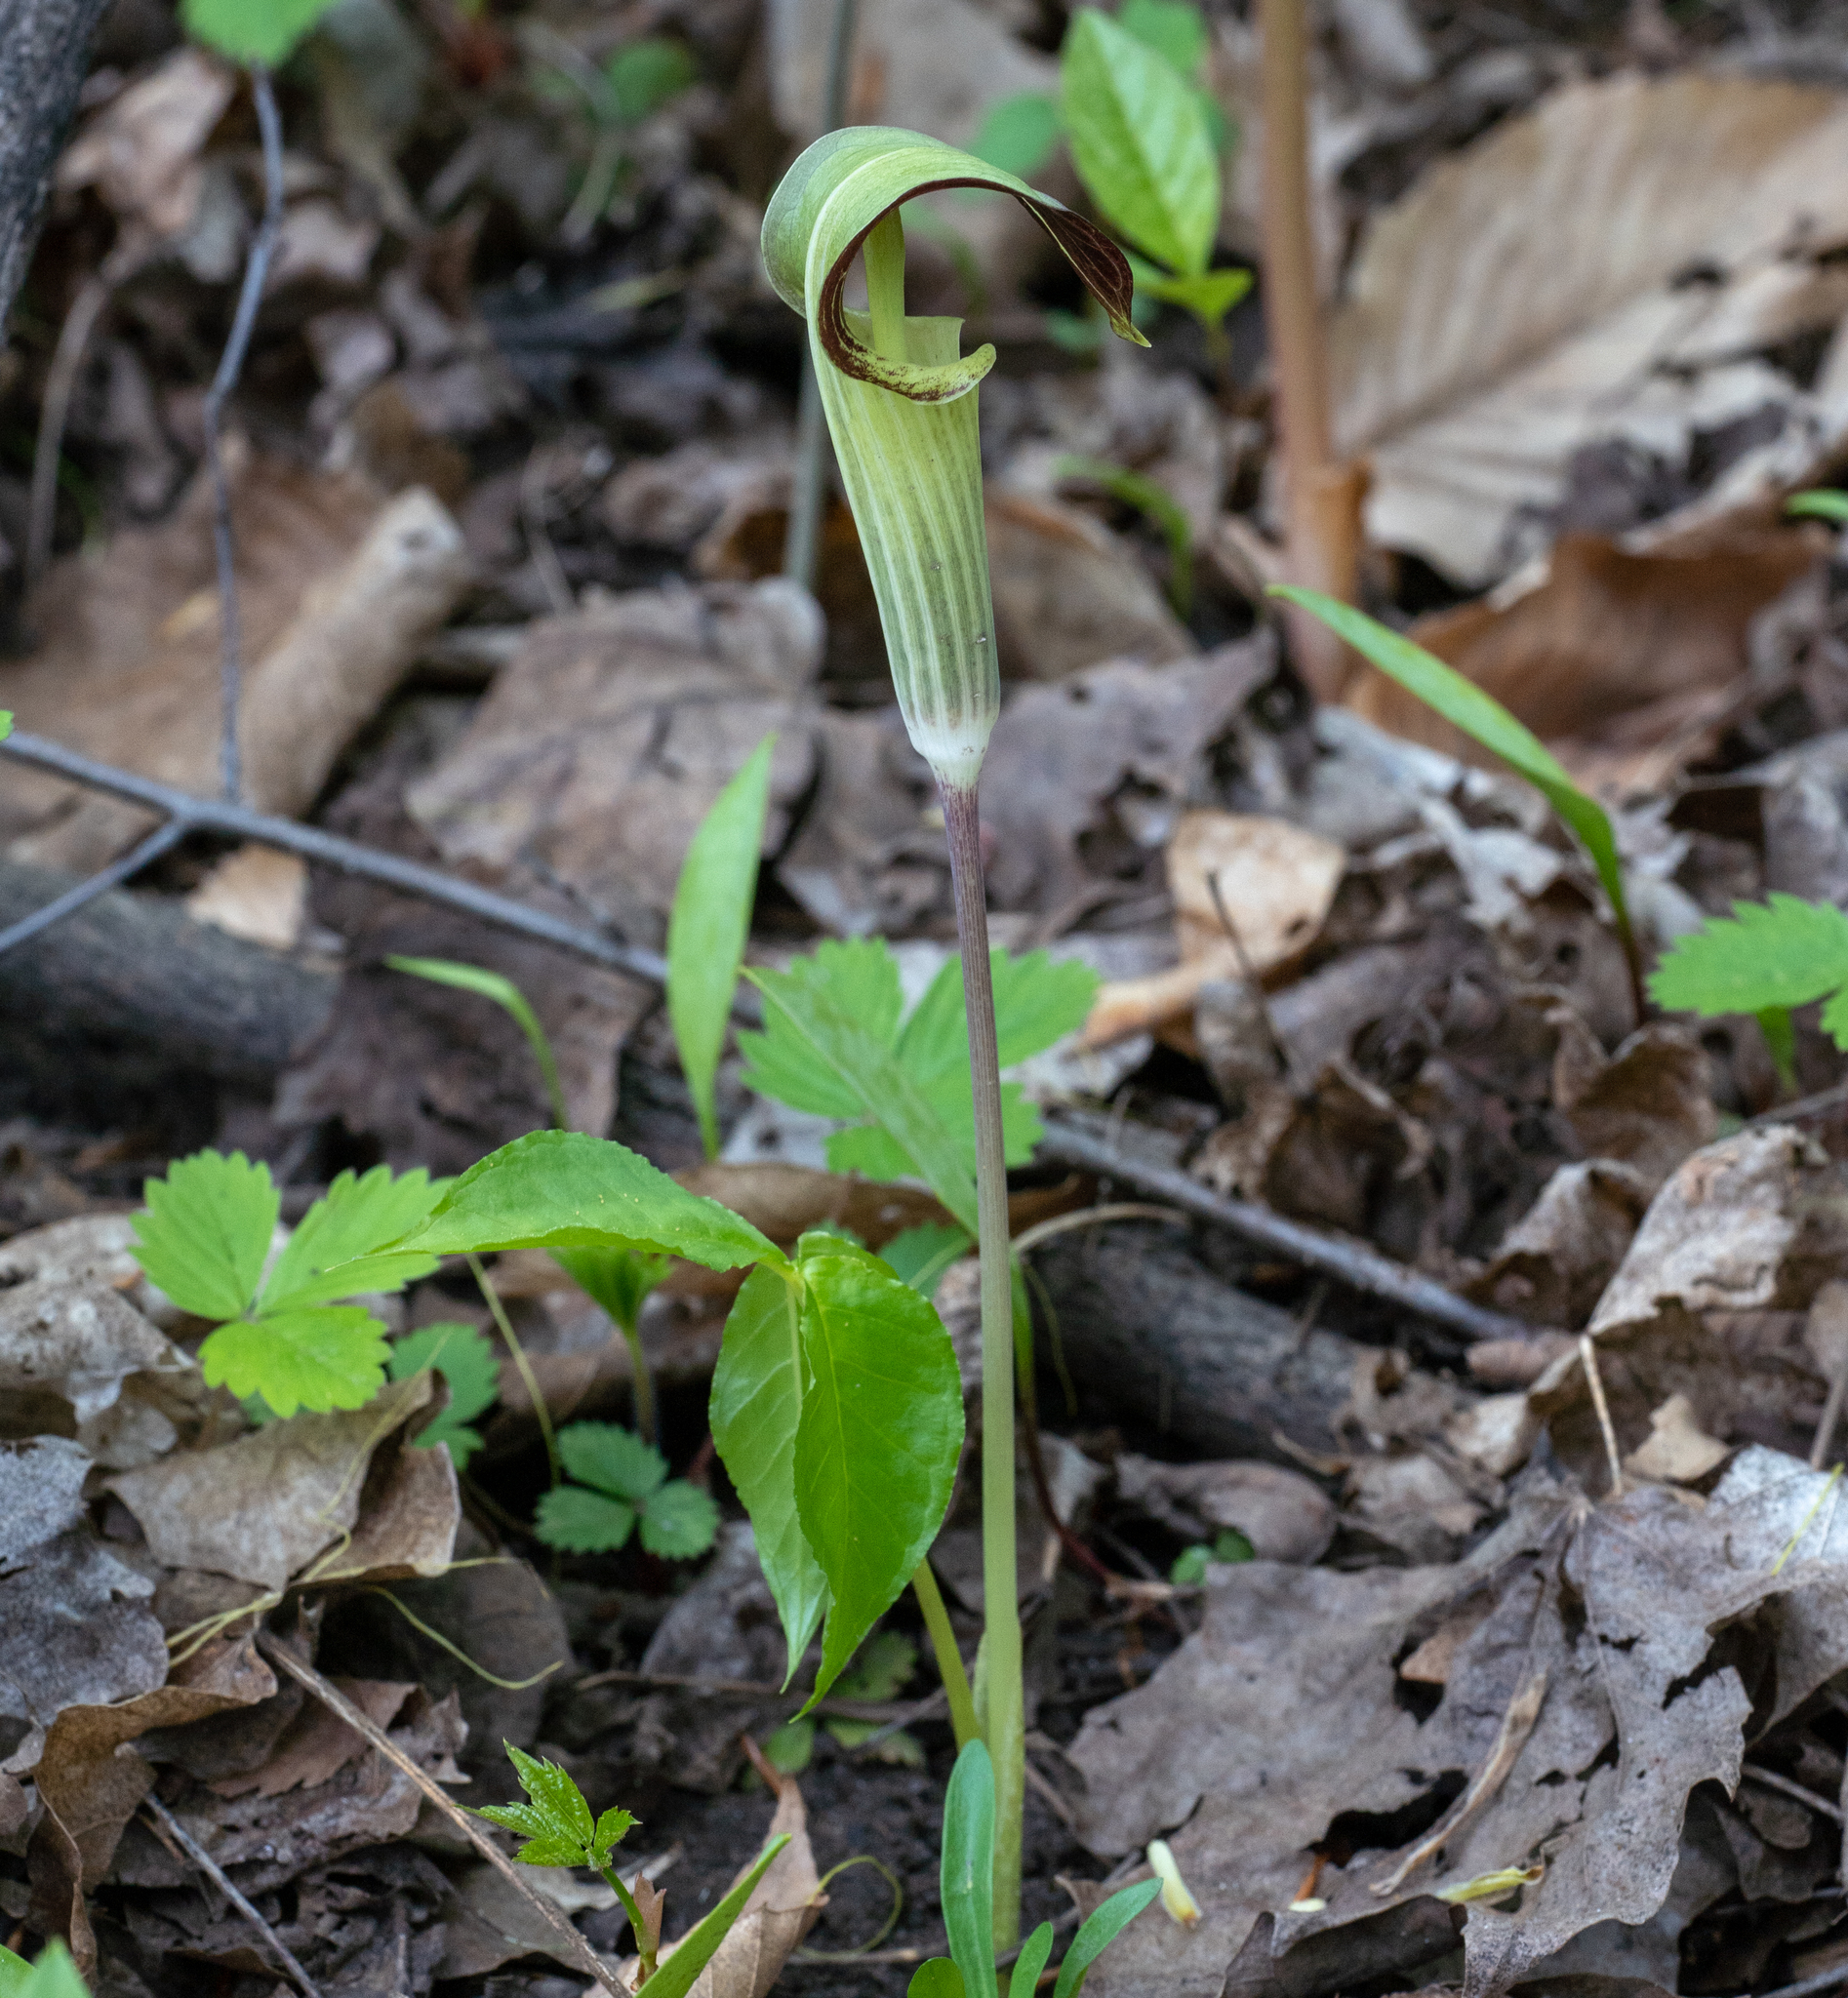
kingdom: Plantae
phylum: Tracheophyta
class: Liliopsida
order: Alismatales
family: Araceae
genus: Arisaema
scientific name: Arisaema triphyllum
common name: Jack-in-the-pulpit
